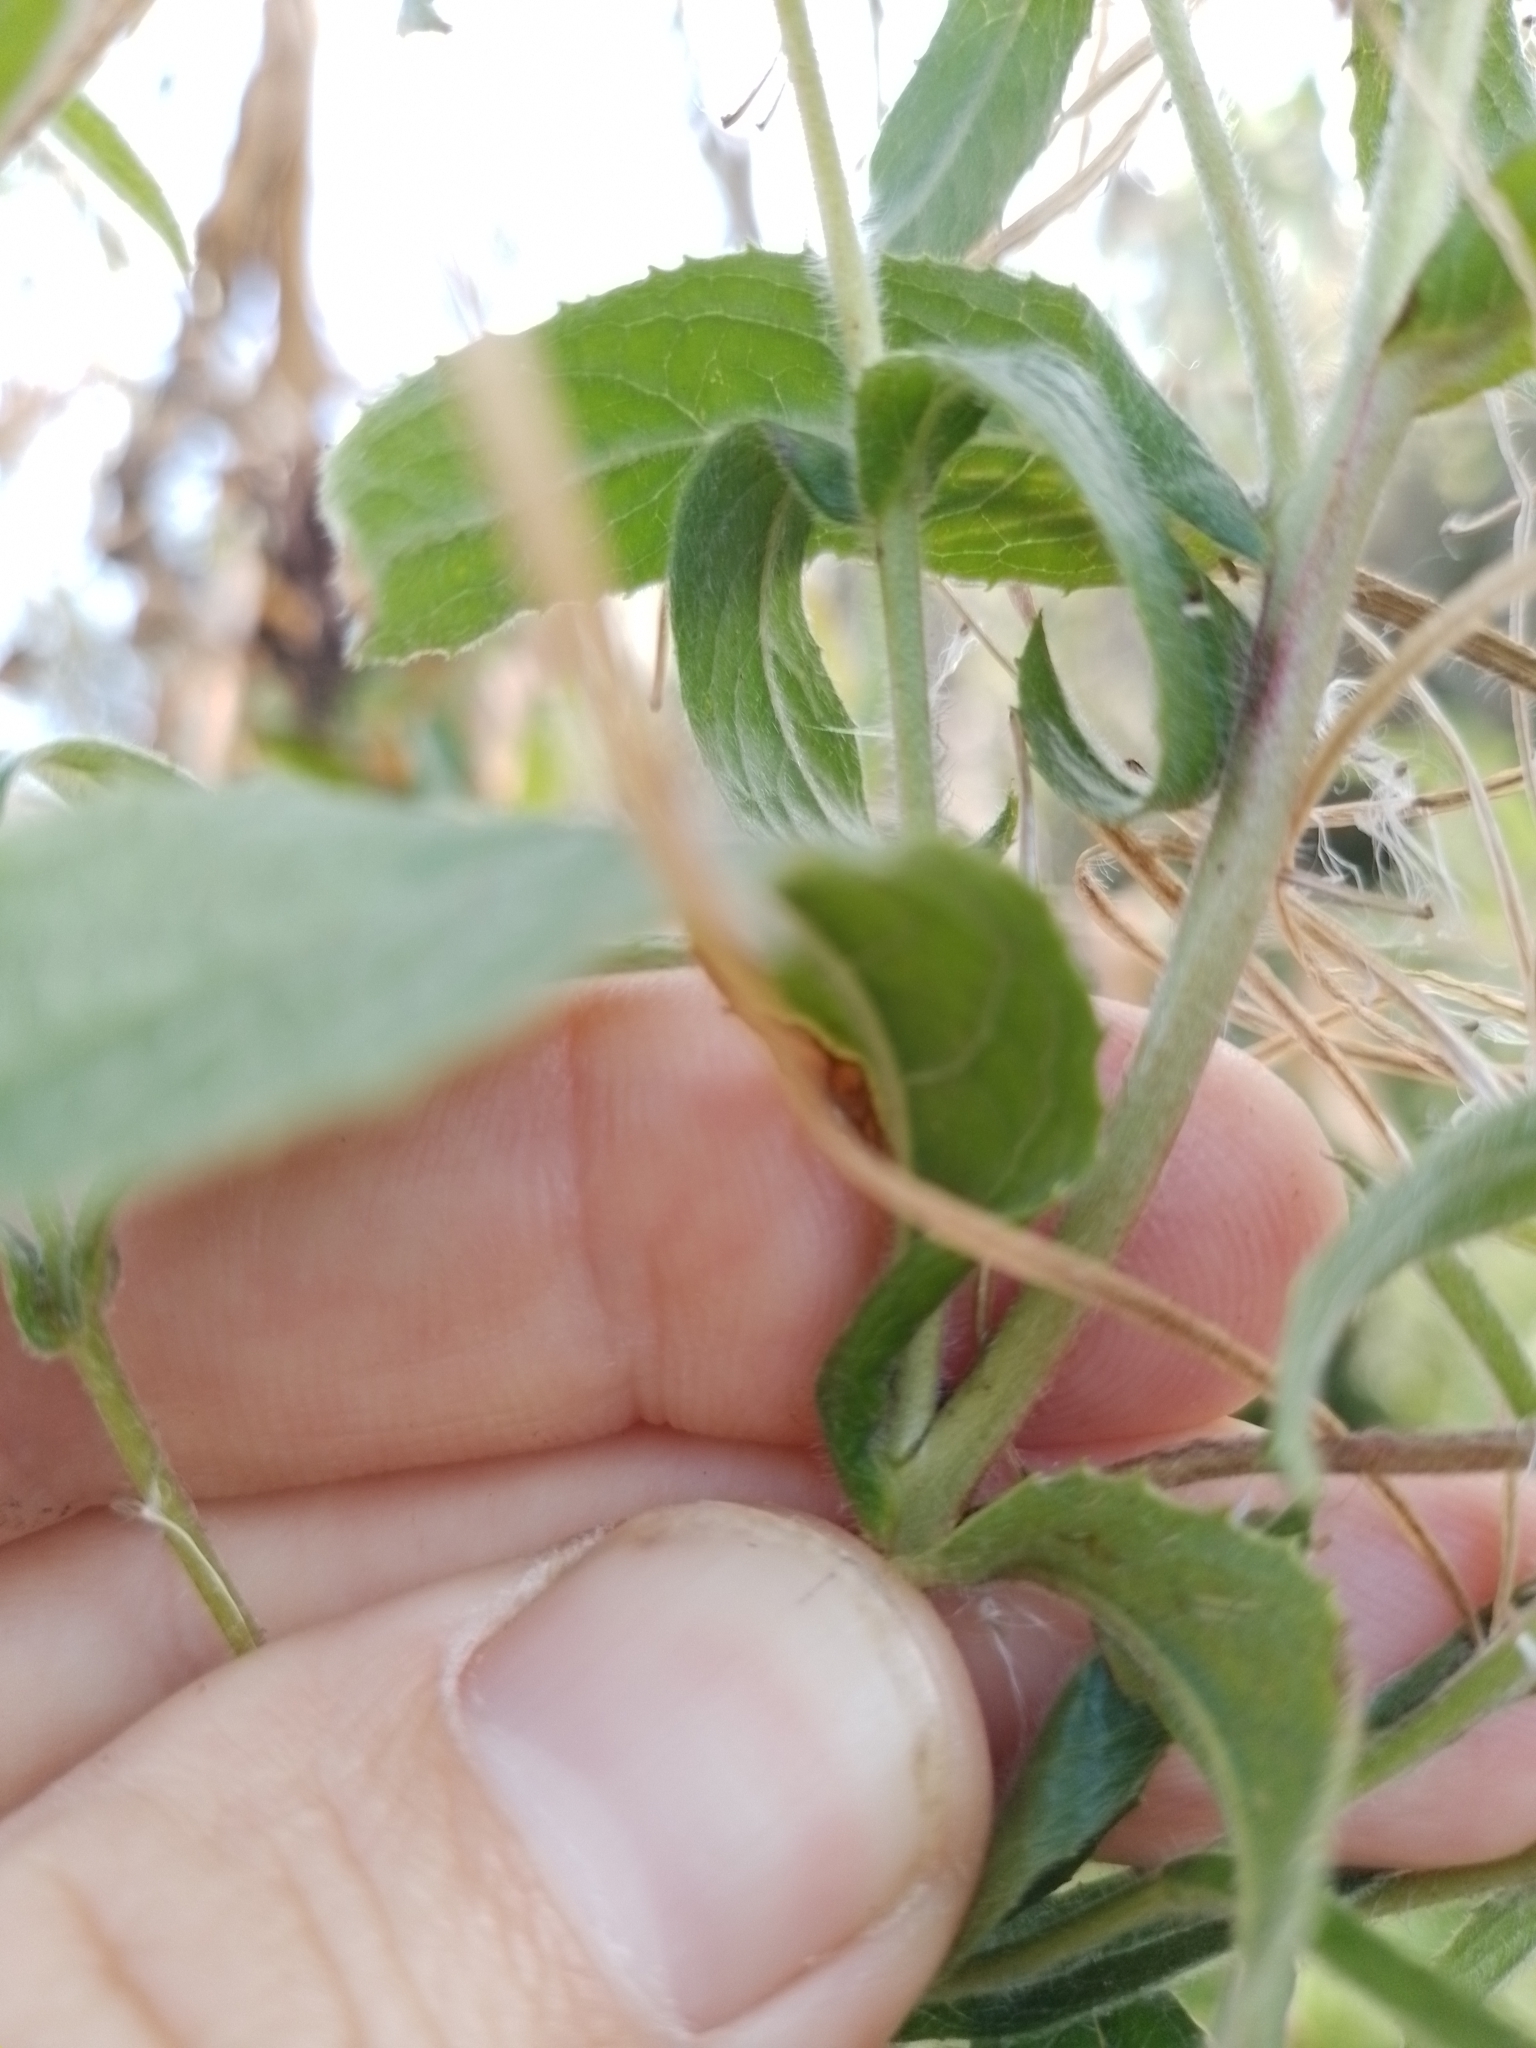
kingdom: Plantae
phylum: Tracheophyta
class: Magnoliopsida
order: Myrtales
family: Onagraceae
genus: Epilobium
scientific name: Epilobium hirsutum
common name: Great willowherb
